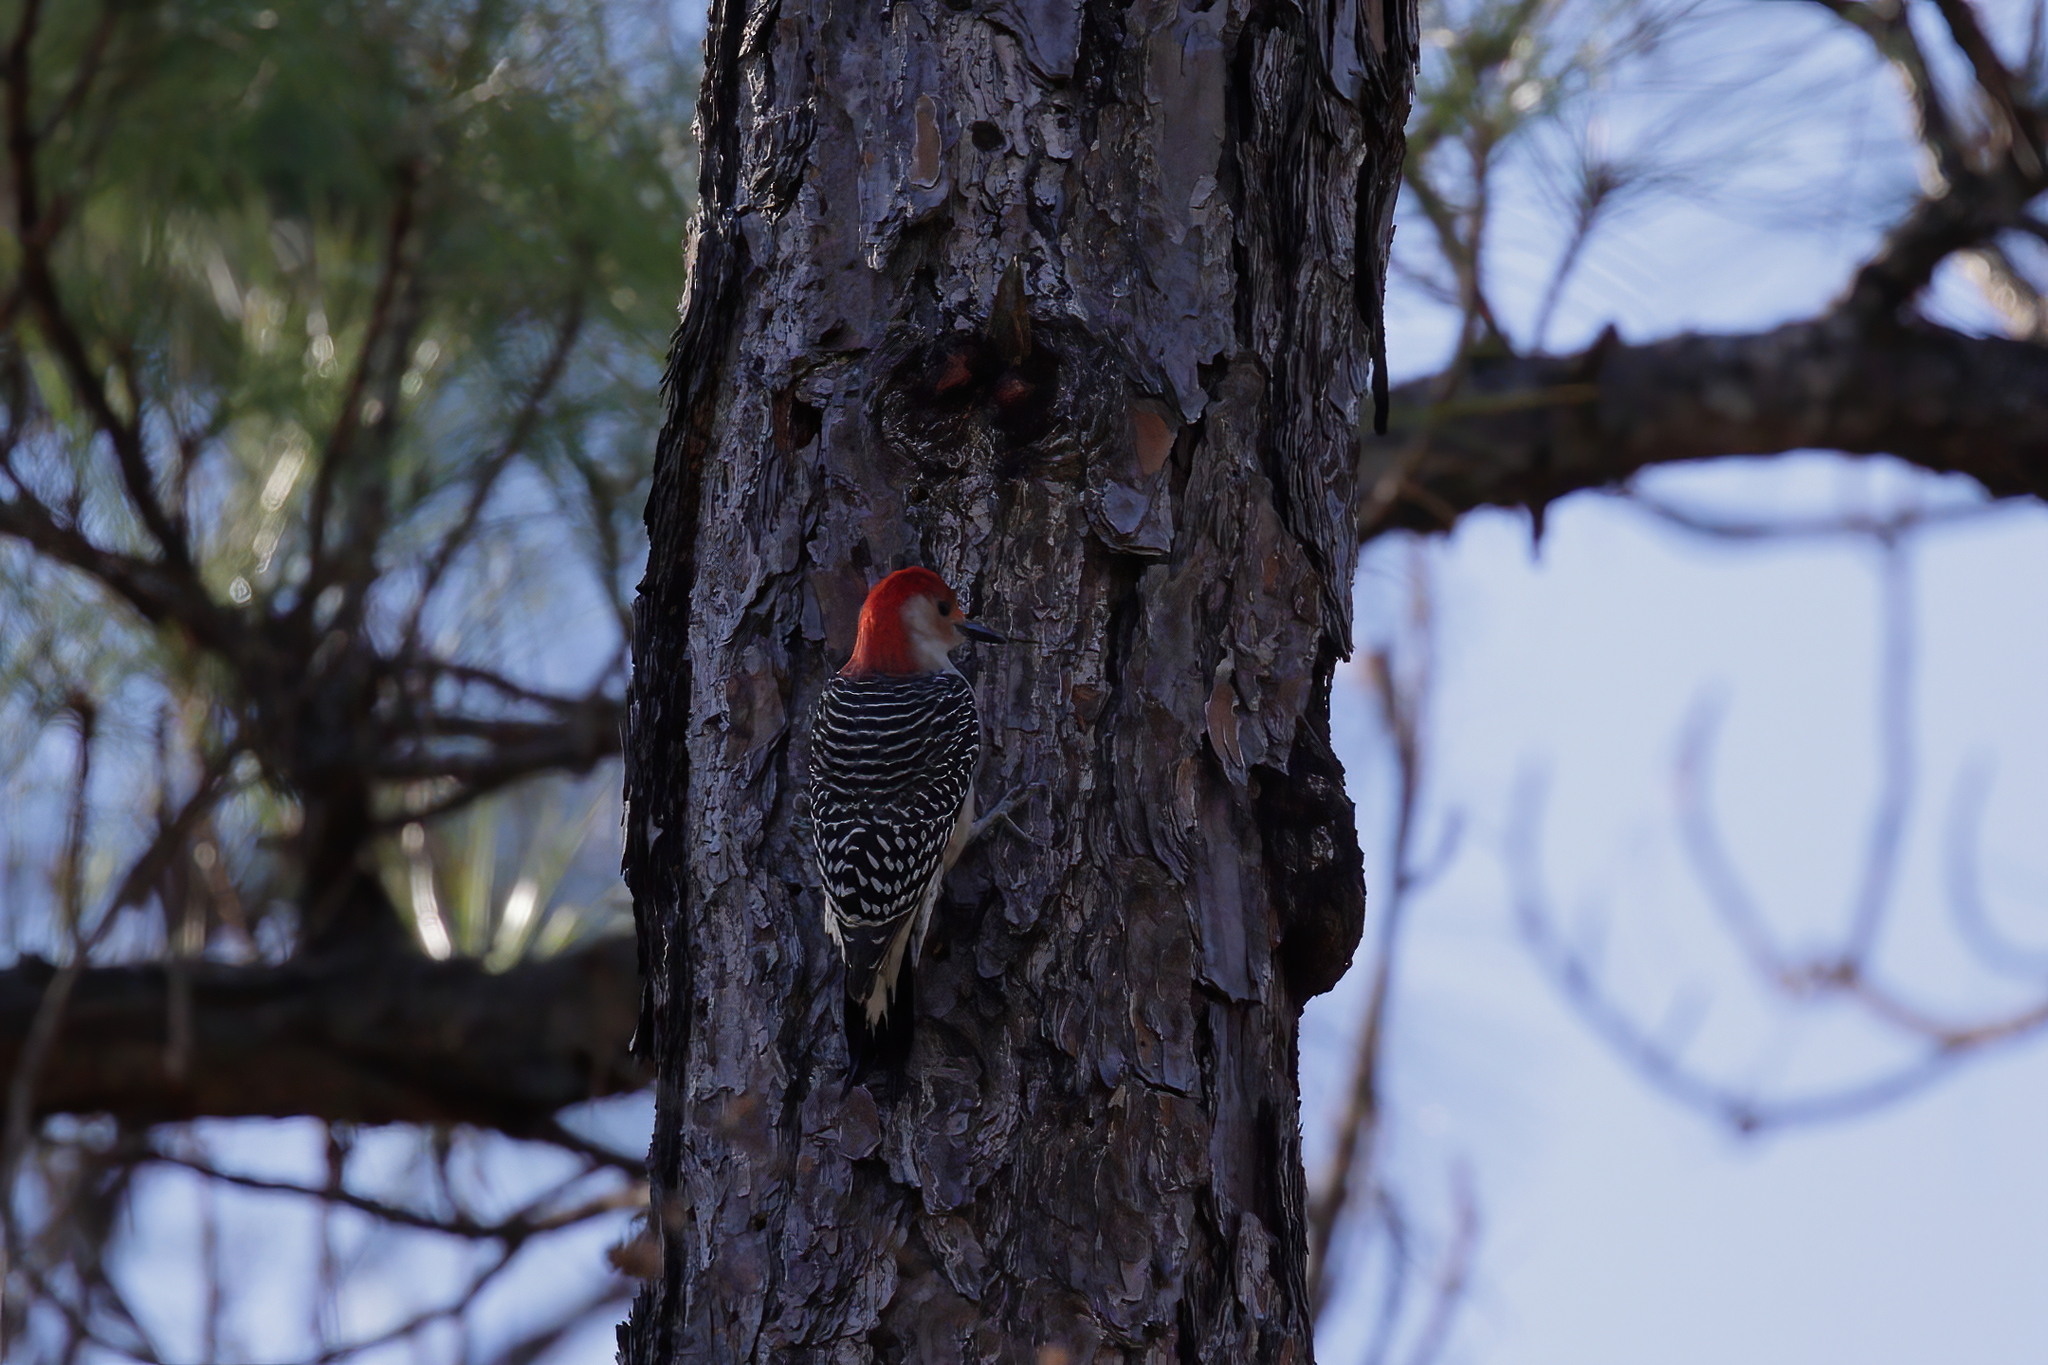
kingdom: Animalia
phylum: Chordata
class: Aves
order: Piciformes
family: Picidae
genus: Melanerpes
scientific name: Melanerpes carolinus
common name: Red-bellied woodpecker
